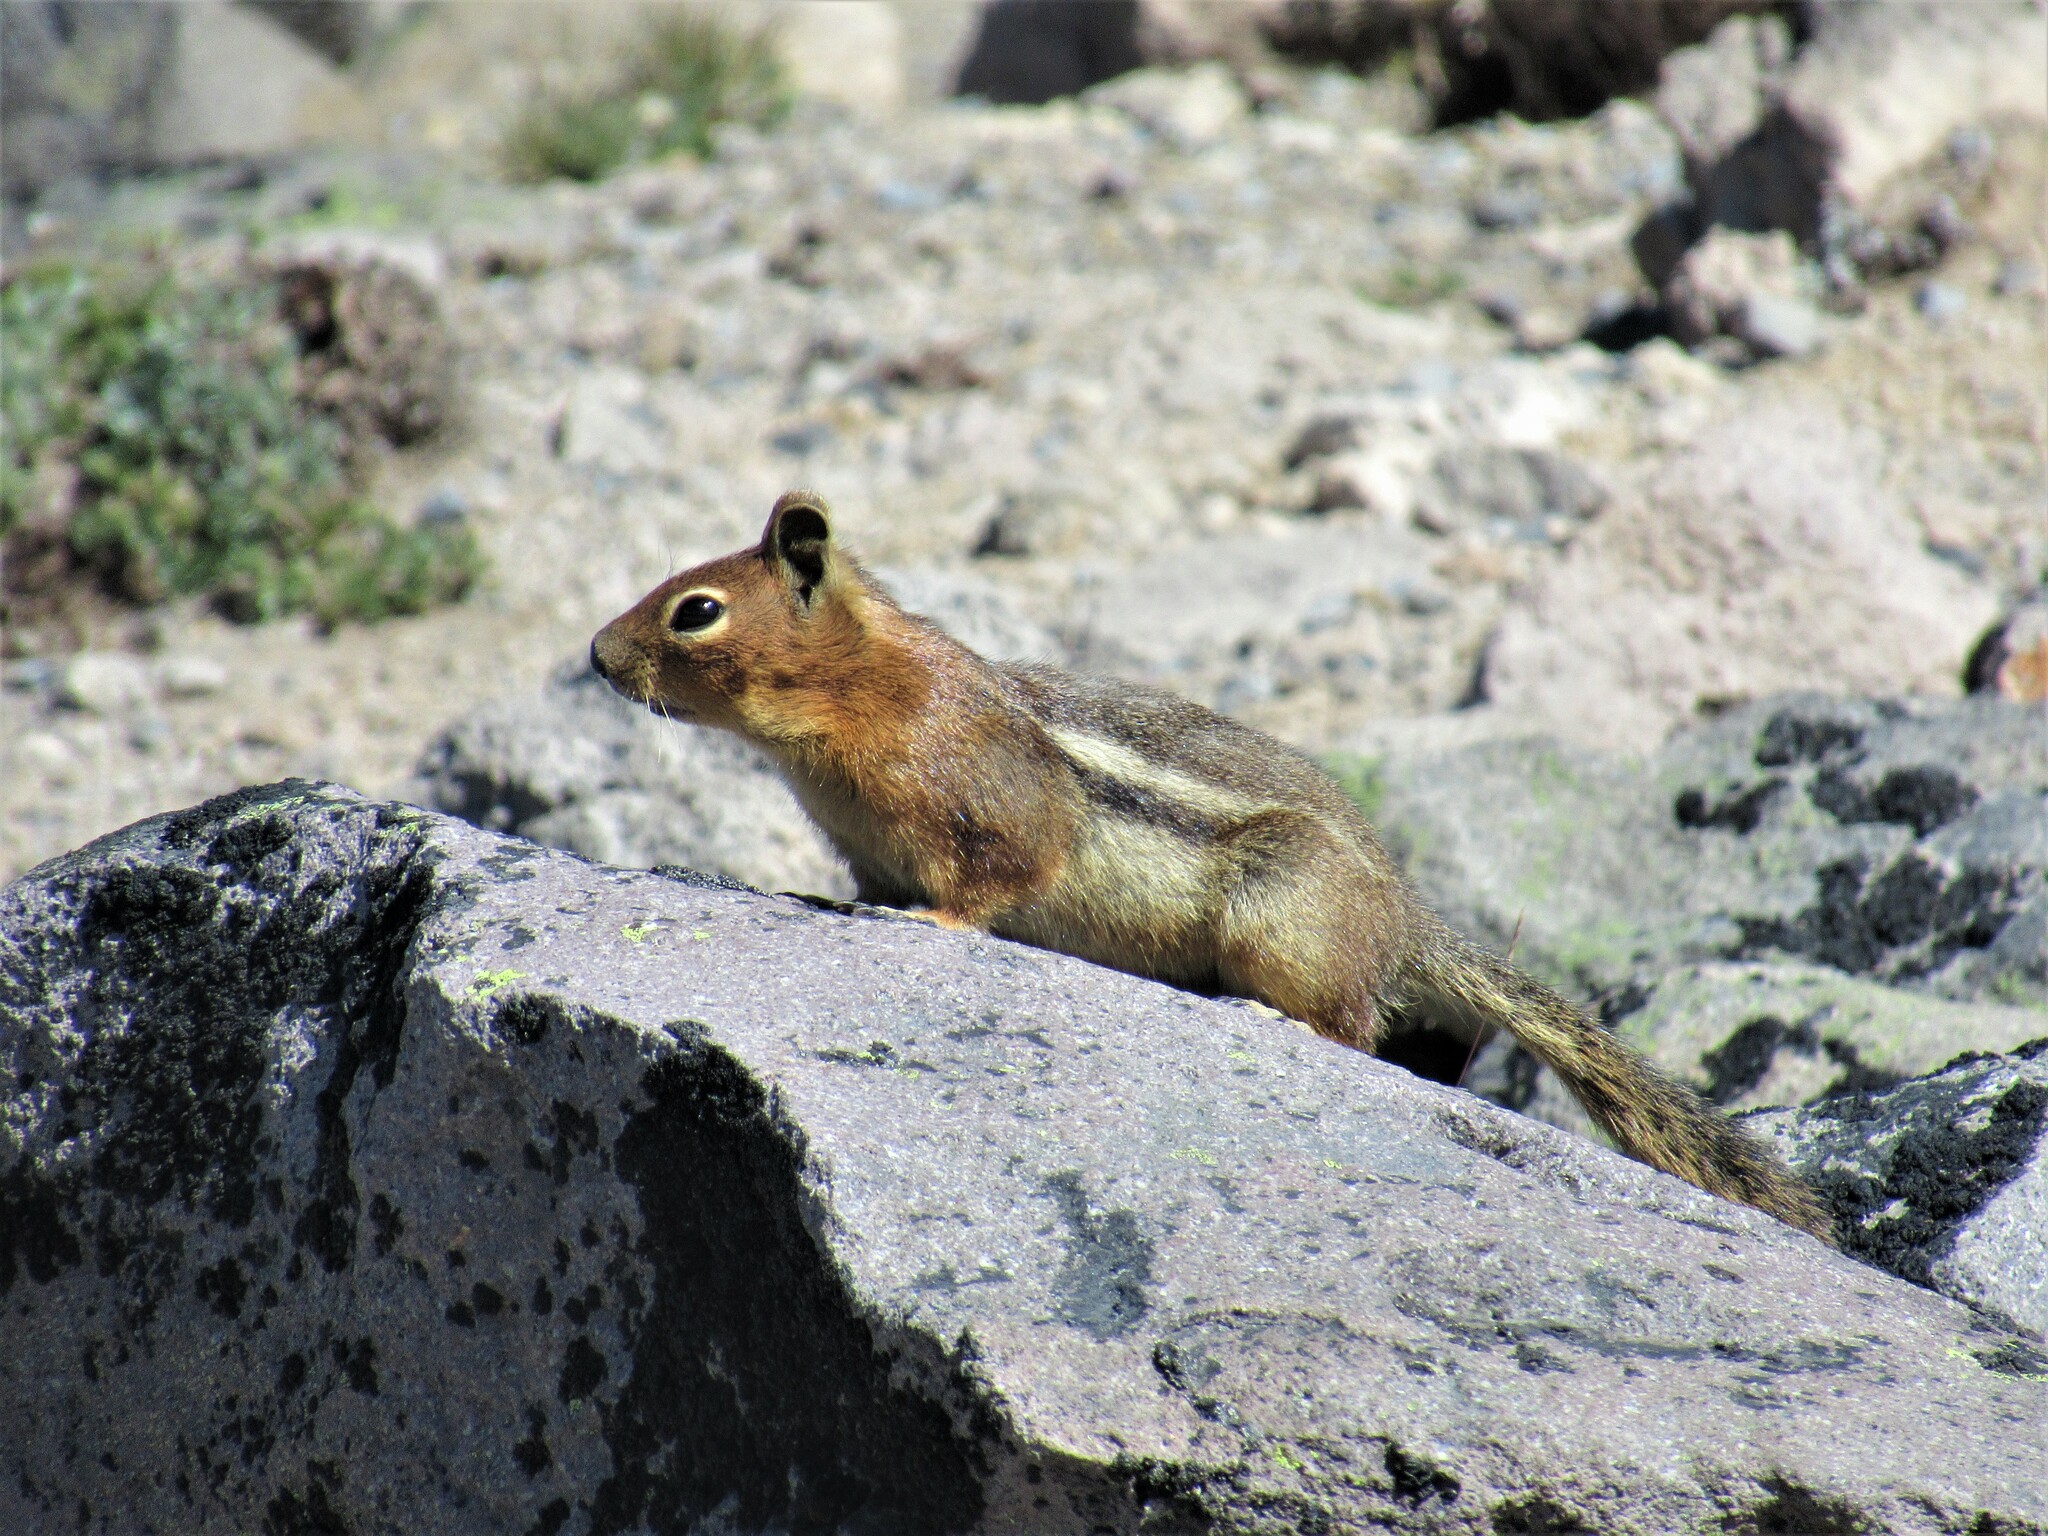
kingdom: Animalia
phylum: Chordata
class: Mammalia
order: Rodentia
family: Sciuridae
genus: Callospermophilus
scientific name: Callospermophilus saturatus
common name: Cascade golden-mantled ground squirrel
